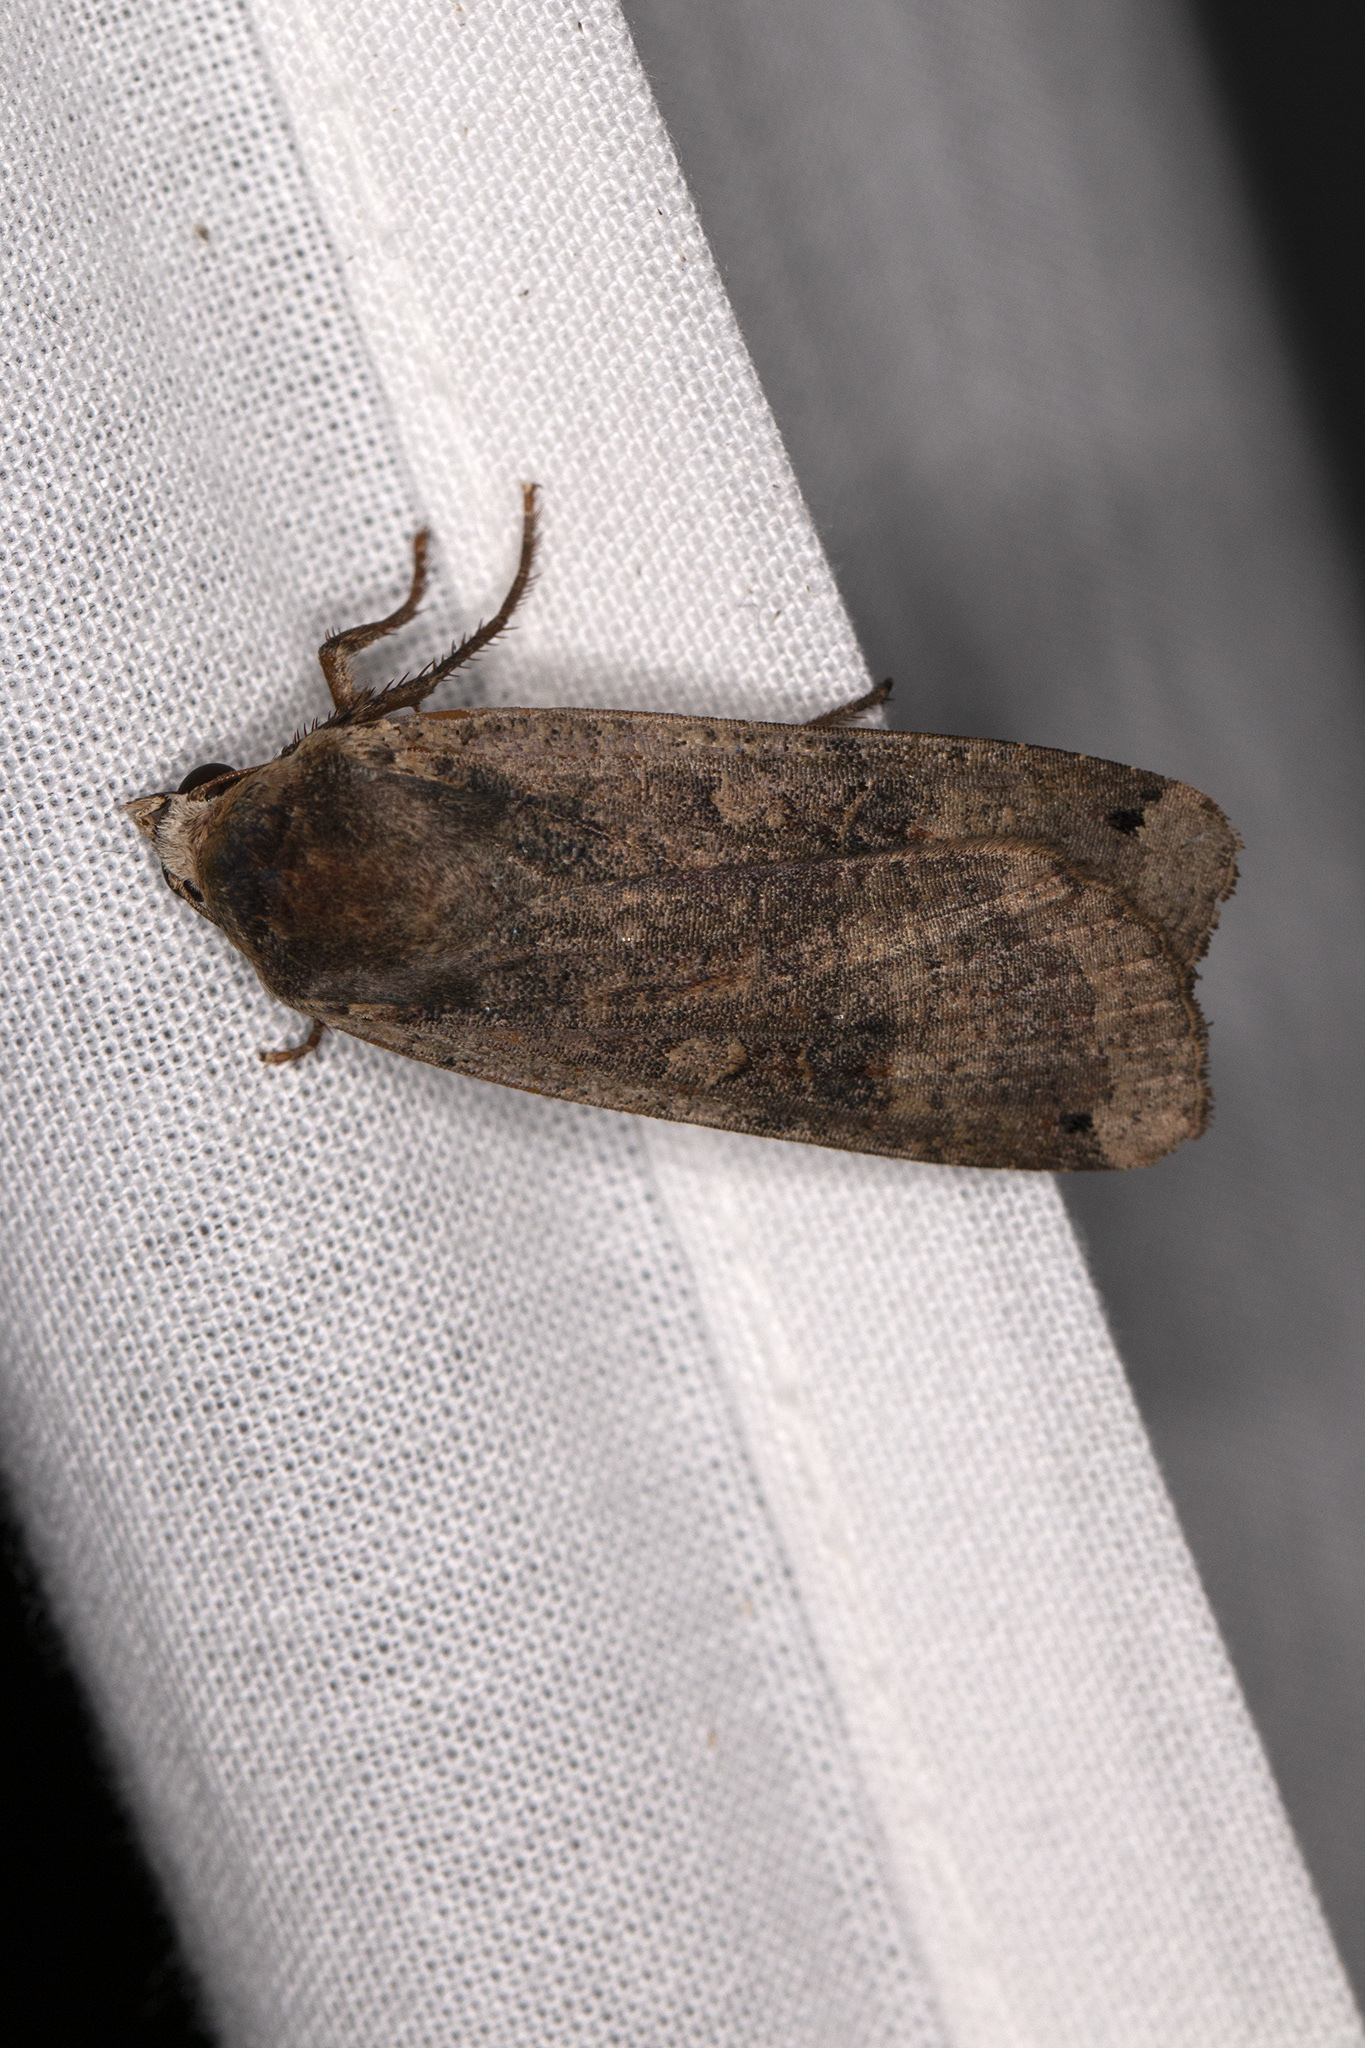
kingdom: Animalia
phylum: Arthropoda
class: Insecta
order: Lepidoptera
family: Noctuidae
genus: Noctua
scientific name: Noctua pronuba
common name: Large yellow underwing
